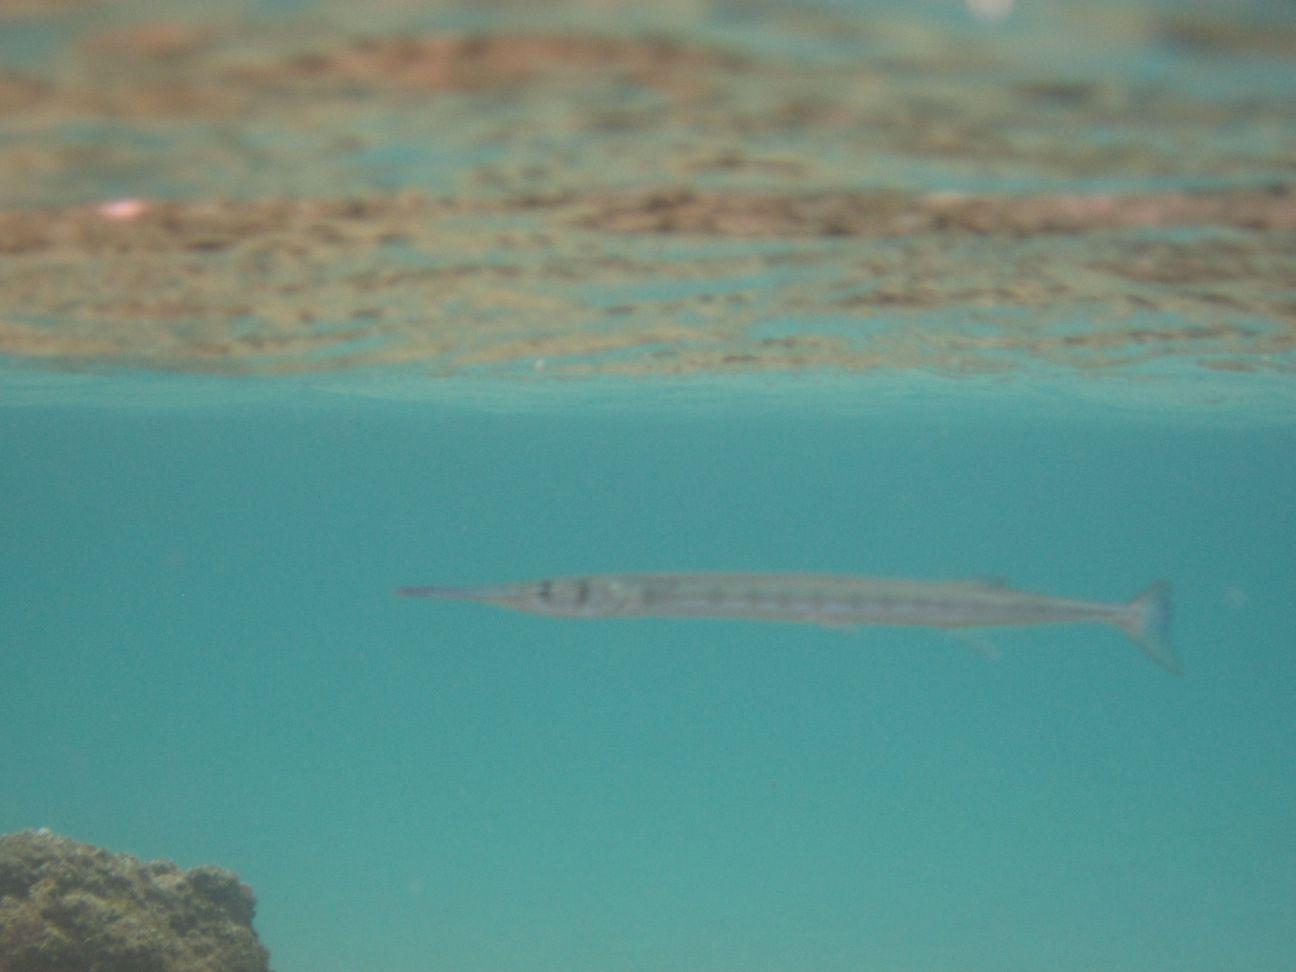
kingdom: Animalia
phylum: Chordata
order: Beloniformes
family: Belonidae
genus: Tylosurus
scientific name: Tylosurus crocodilus
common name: Houndfish
